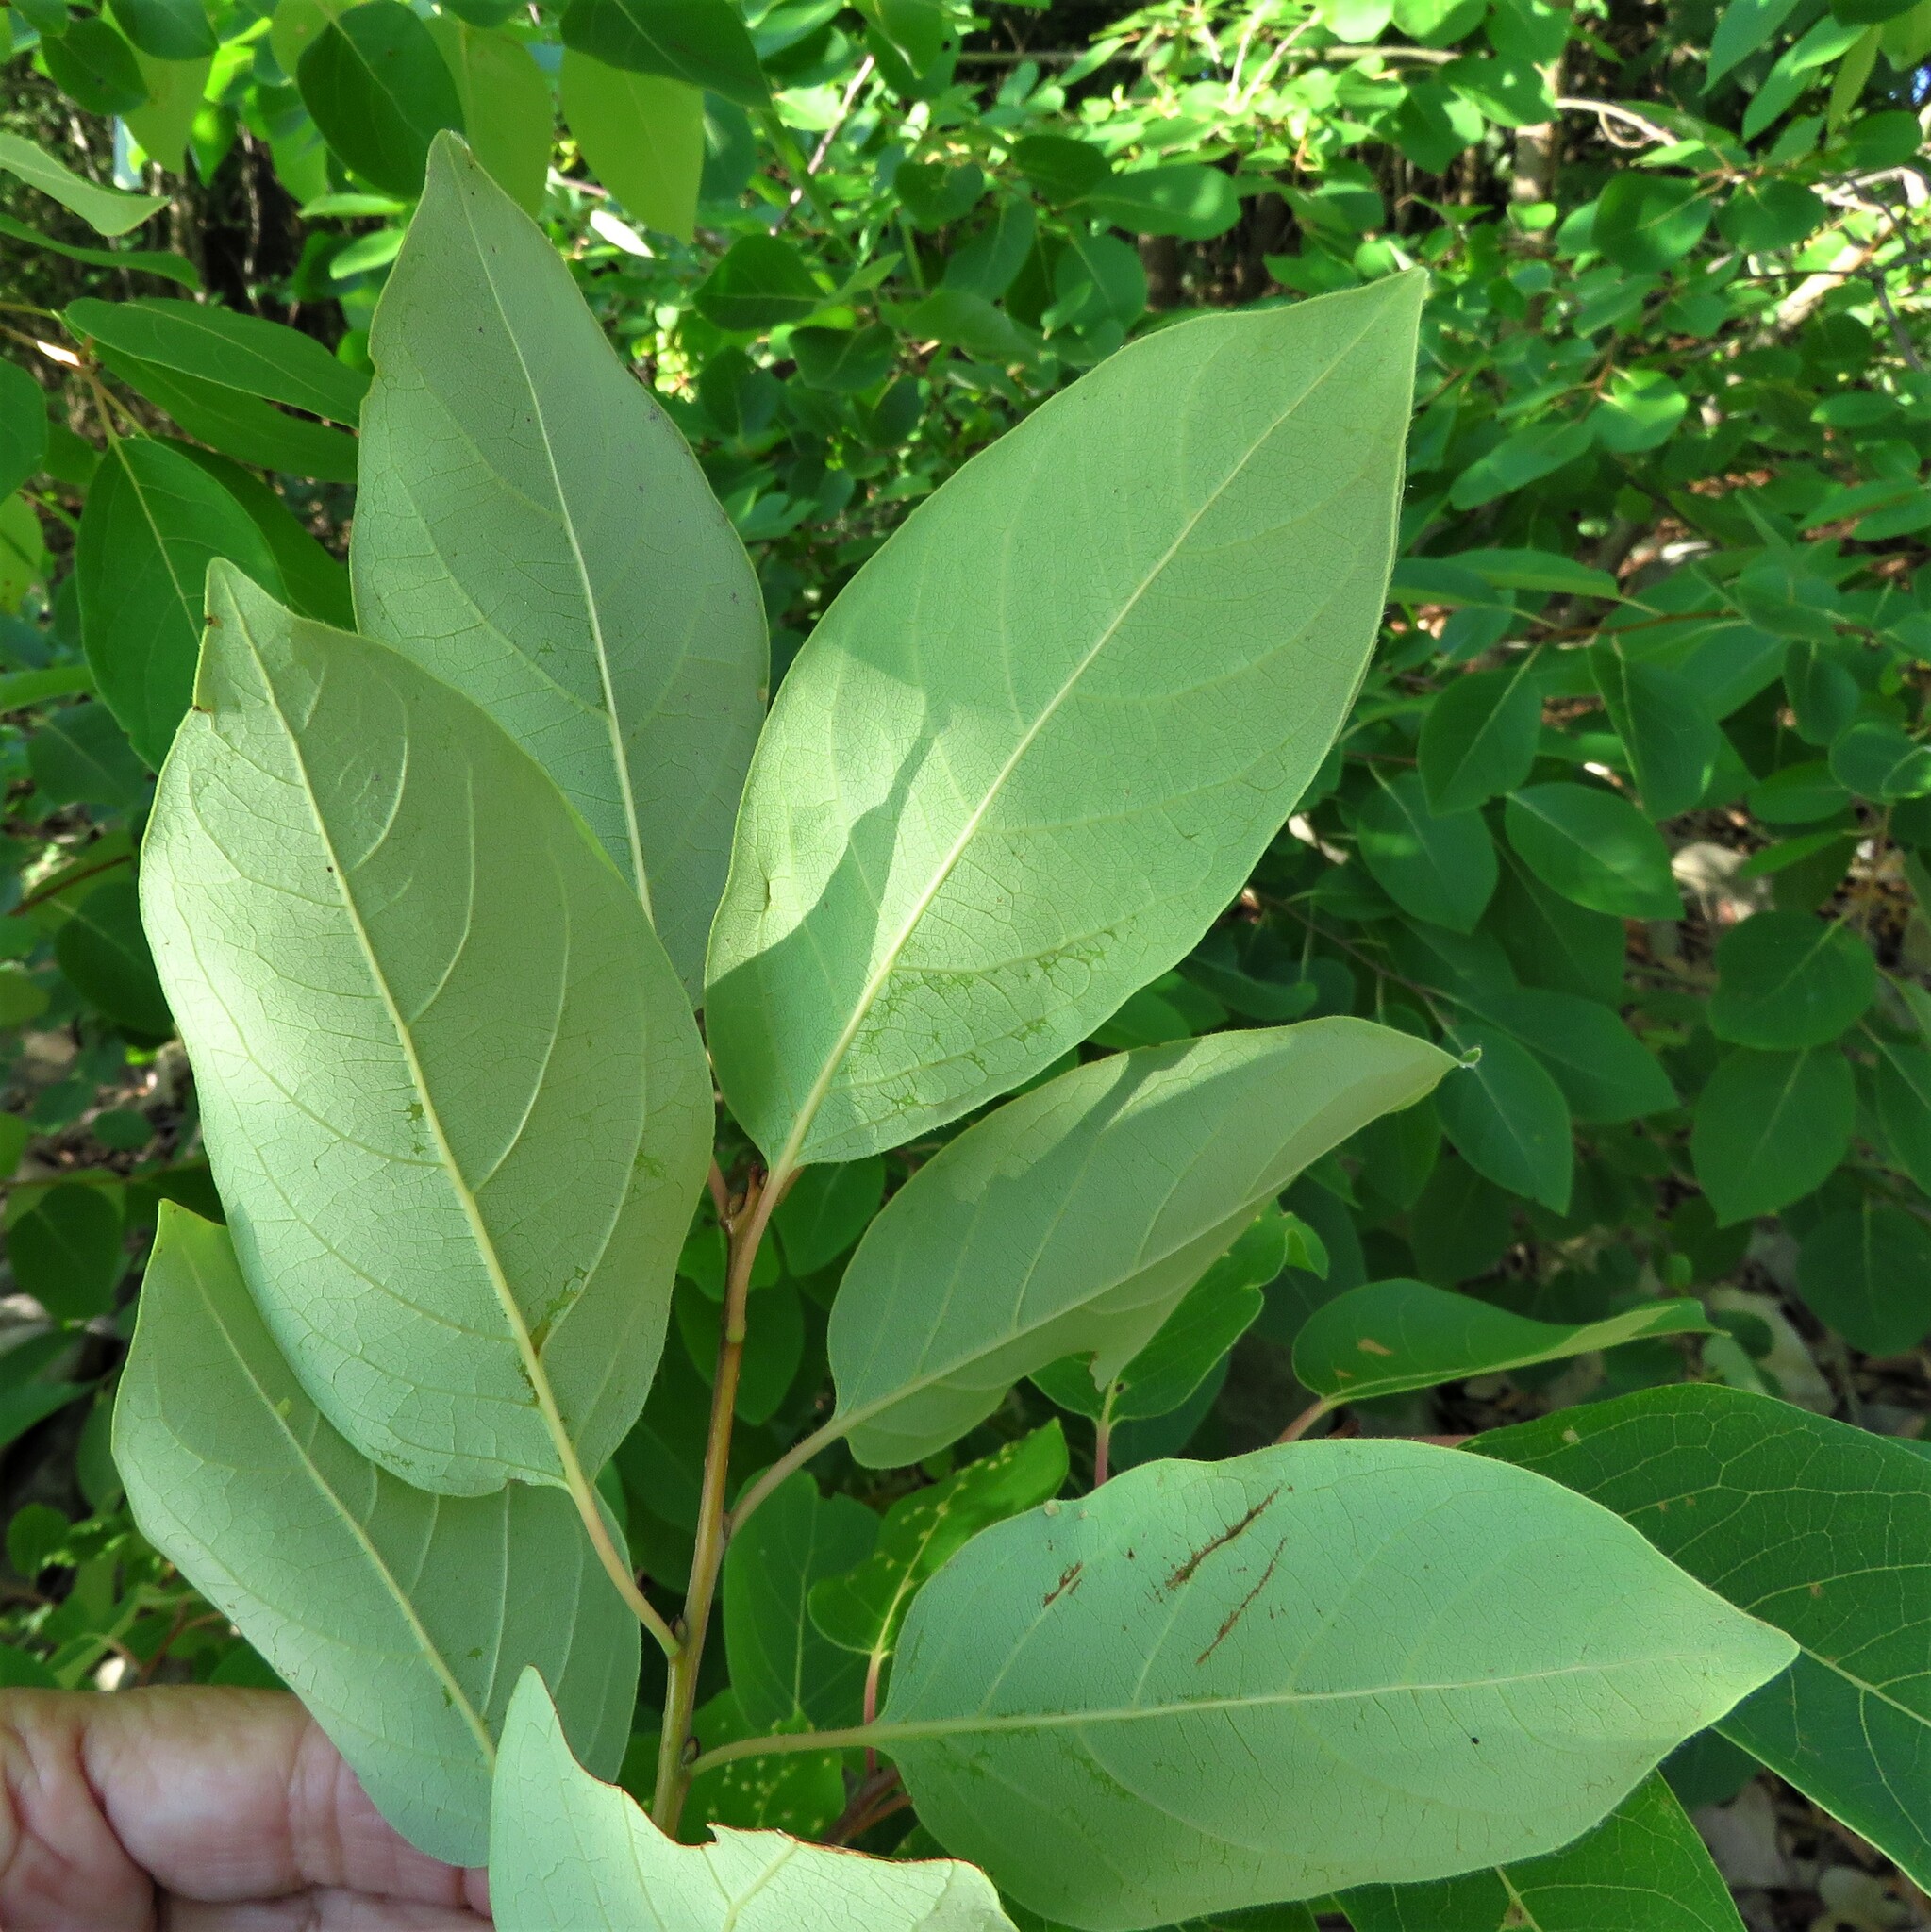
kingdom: Plantae
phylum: Tracheophyta
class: Magnoliopsida
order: Ericales
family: Ebenaceae
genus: Diospyros
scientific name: Diospyros virginiana
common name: Persimmon
